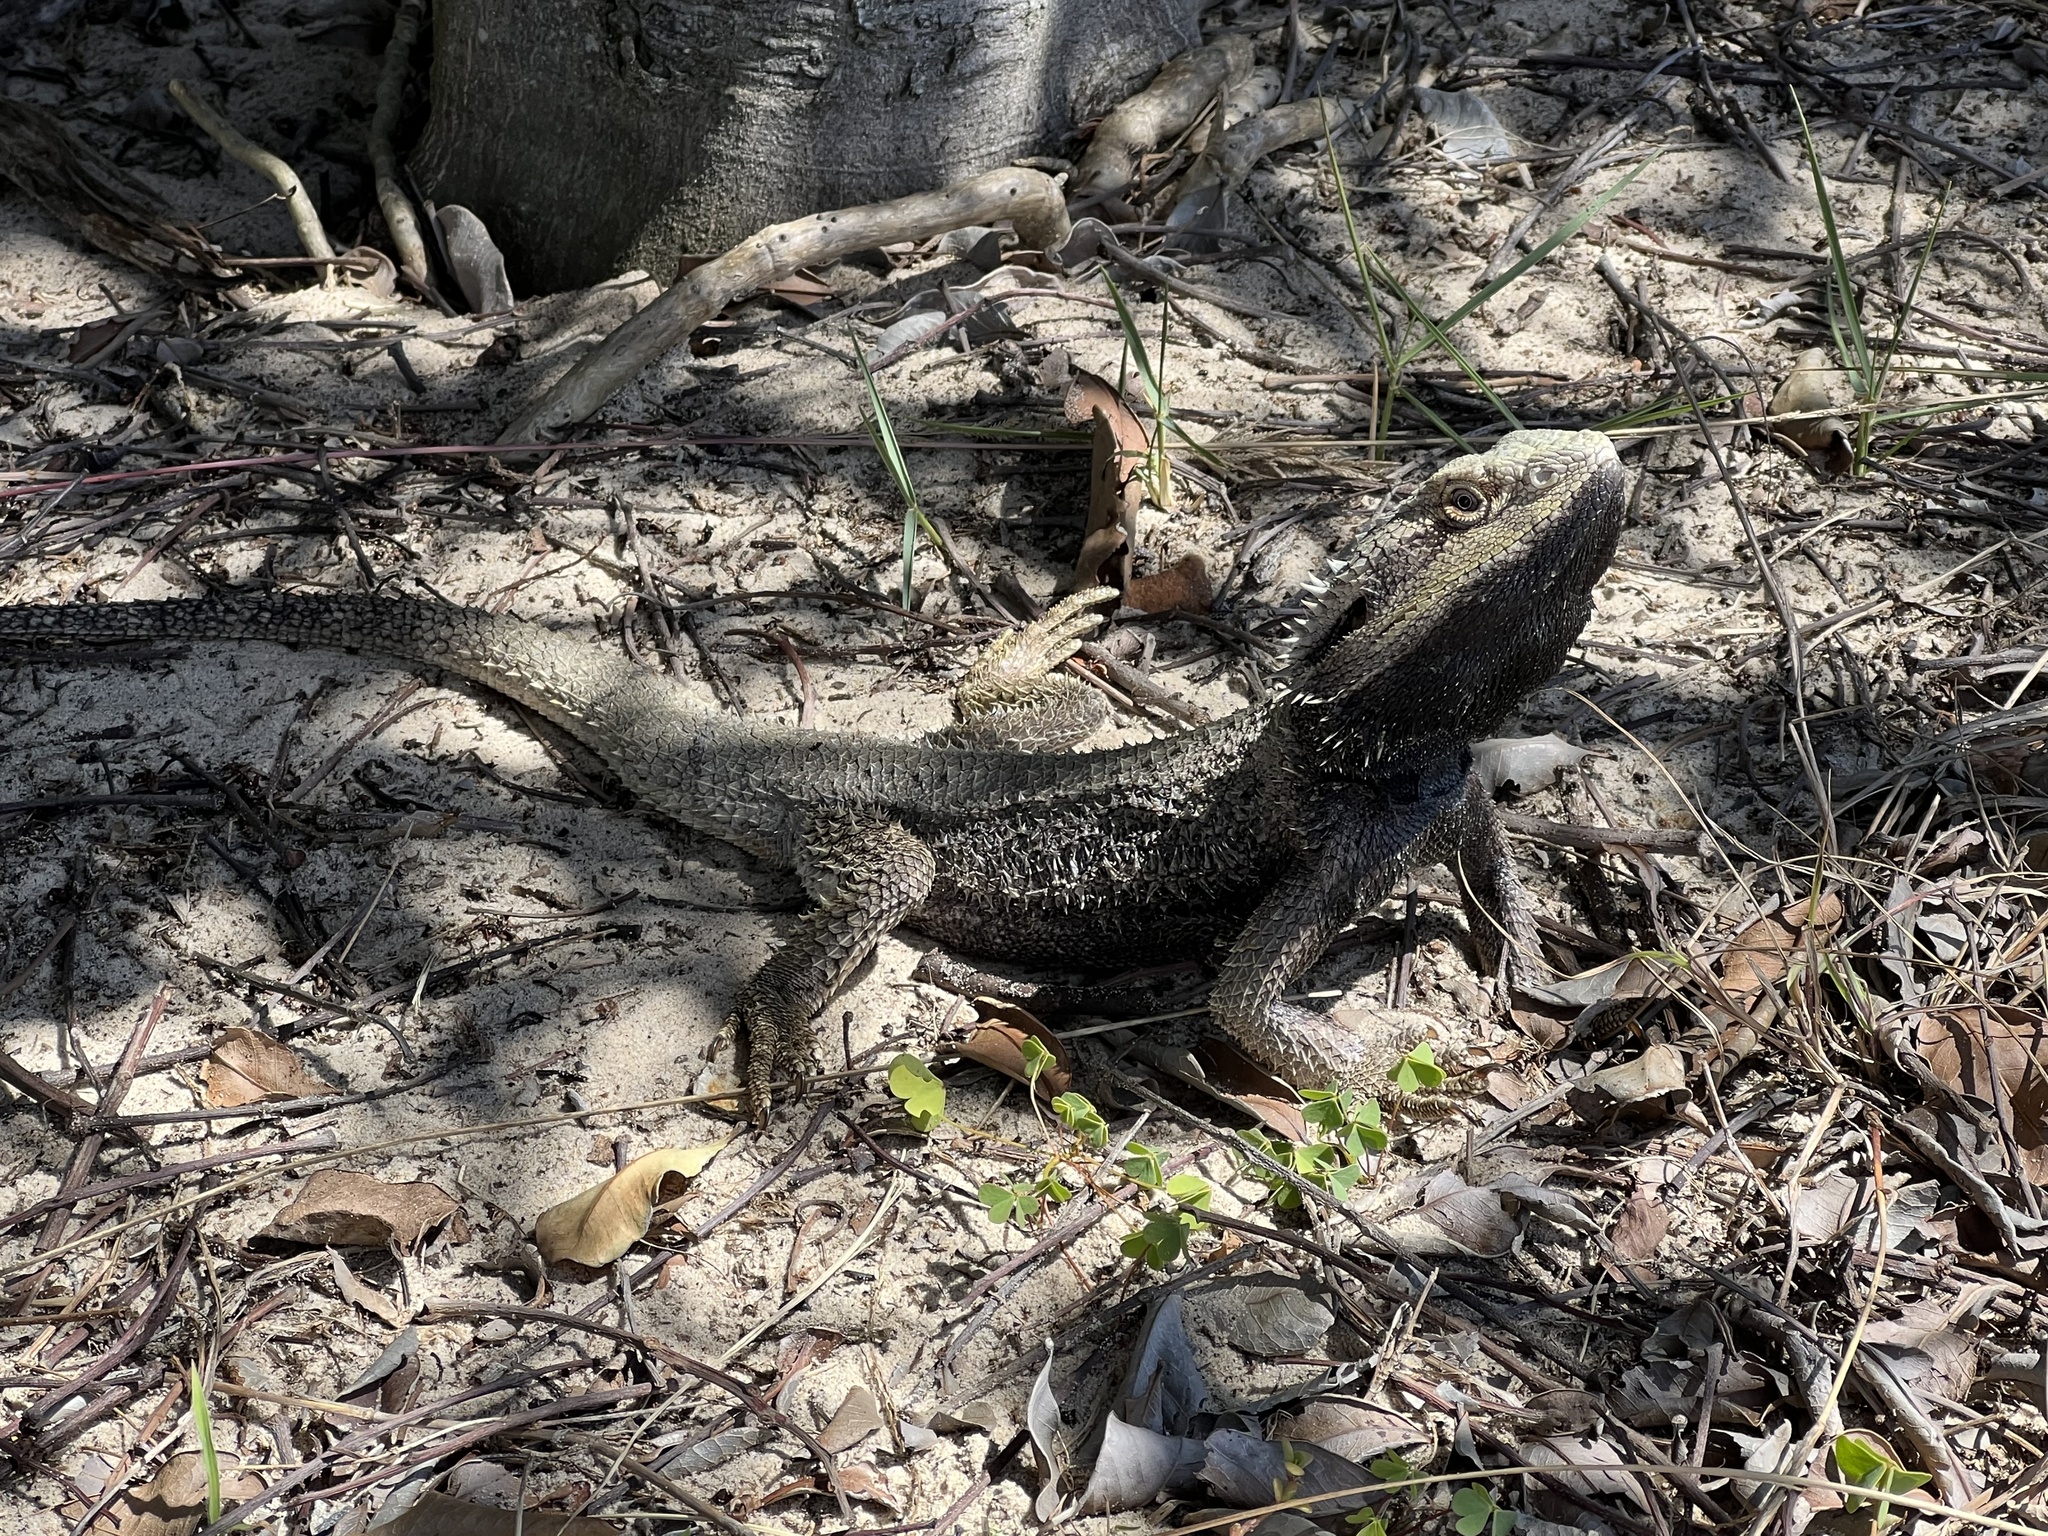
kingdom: Animalia
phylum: Chordata
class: Squamata
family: Agamidae
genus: Pogona
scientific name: Pogona barbata
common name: Bearded dragon
